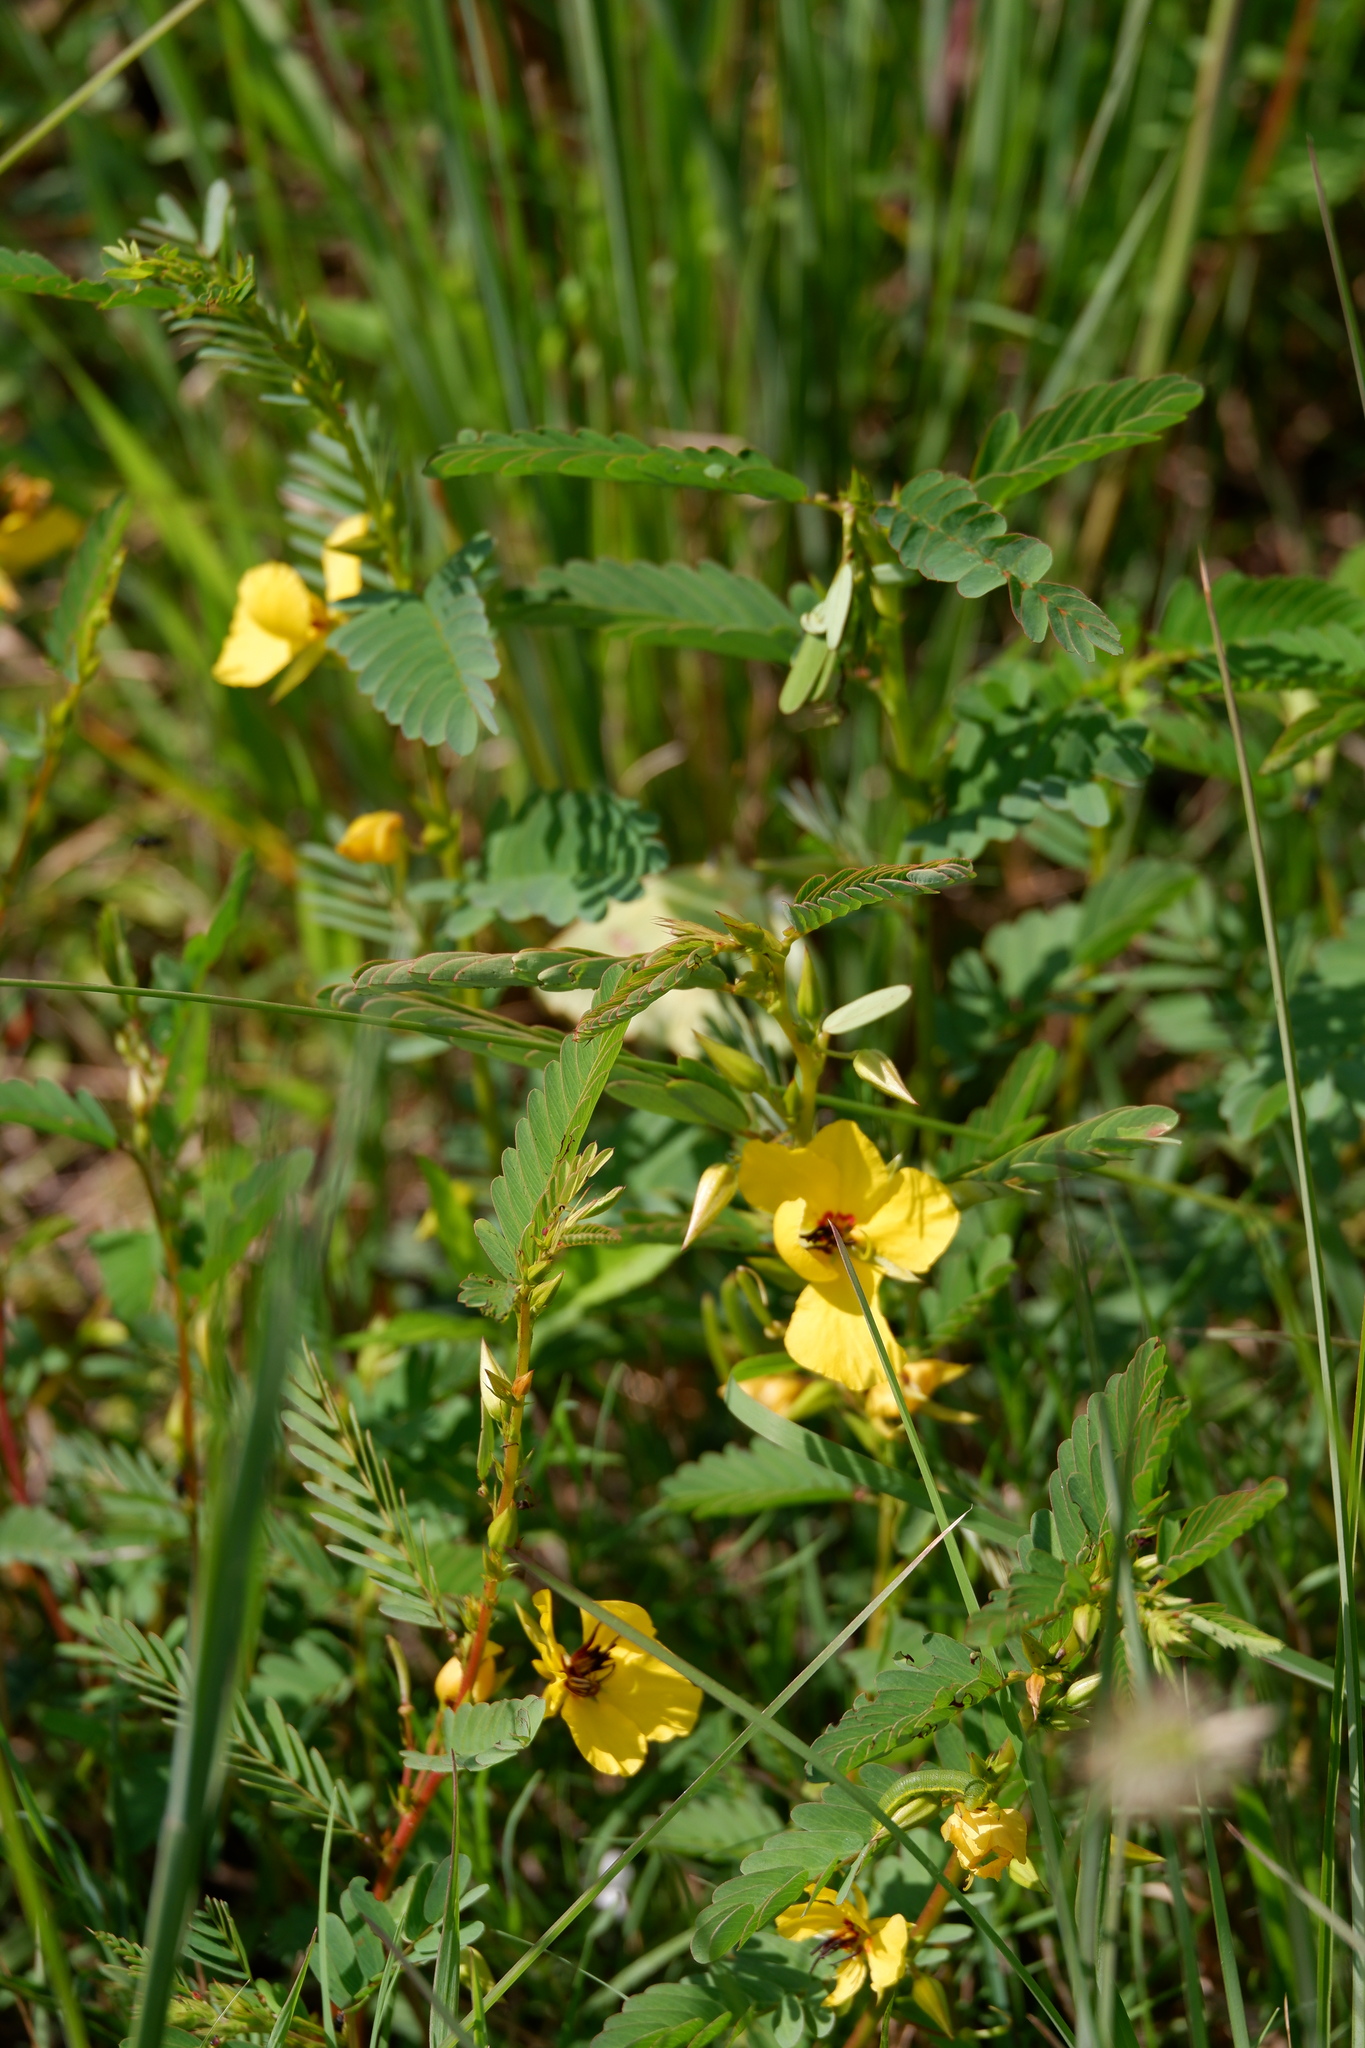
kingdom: Plantae
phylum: Tracheophyta
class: Magnoliopsida
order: Fabales
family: Fabaceae
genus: Chamaecrista
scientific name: Chamaecrista fasciculata
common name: Golden cassia
